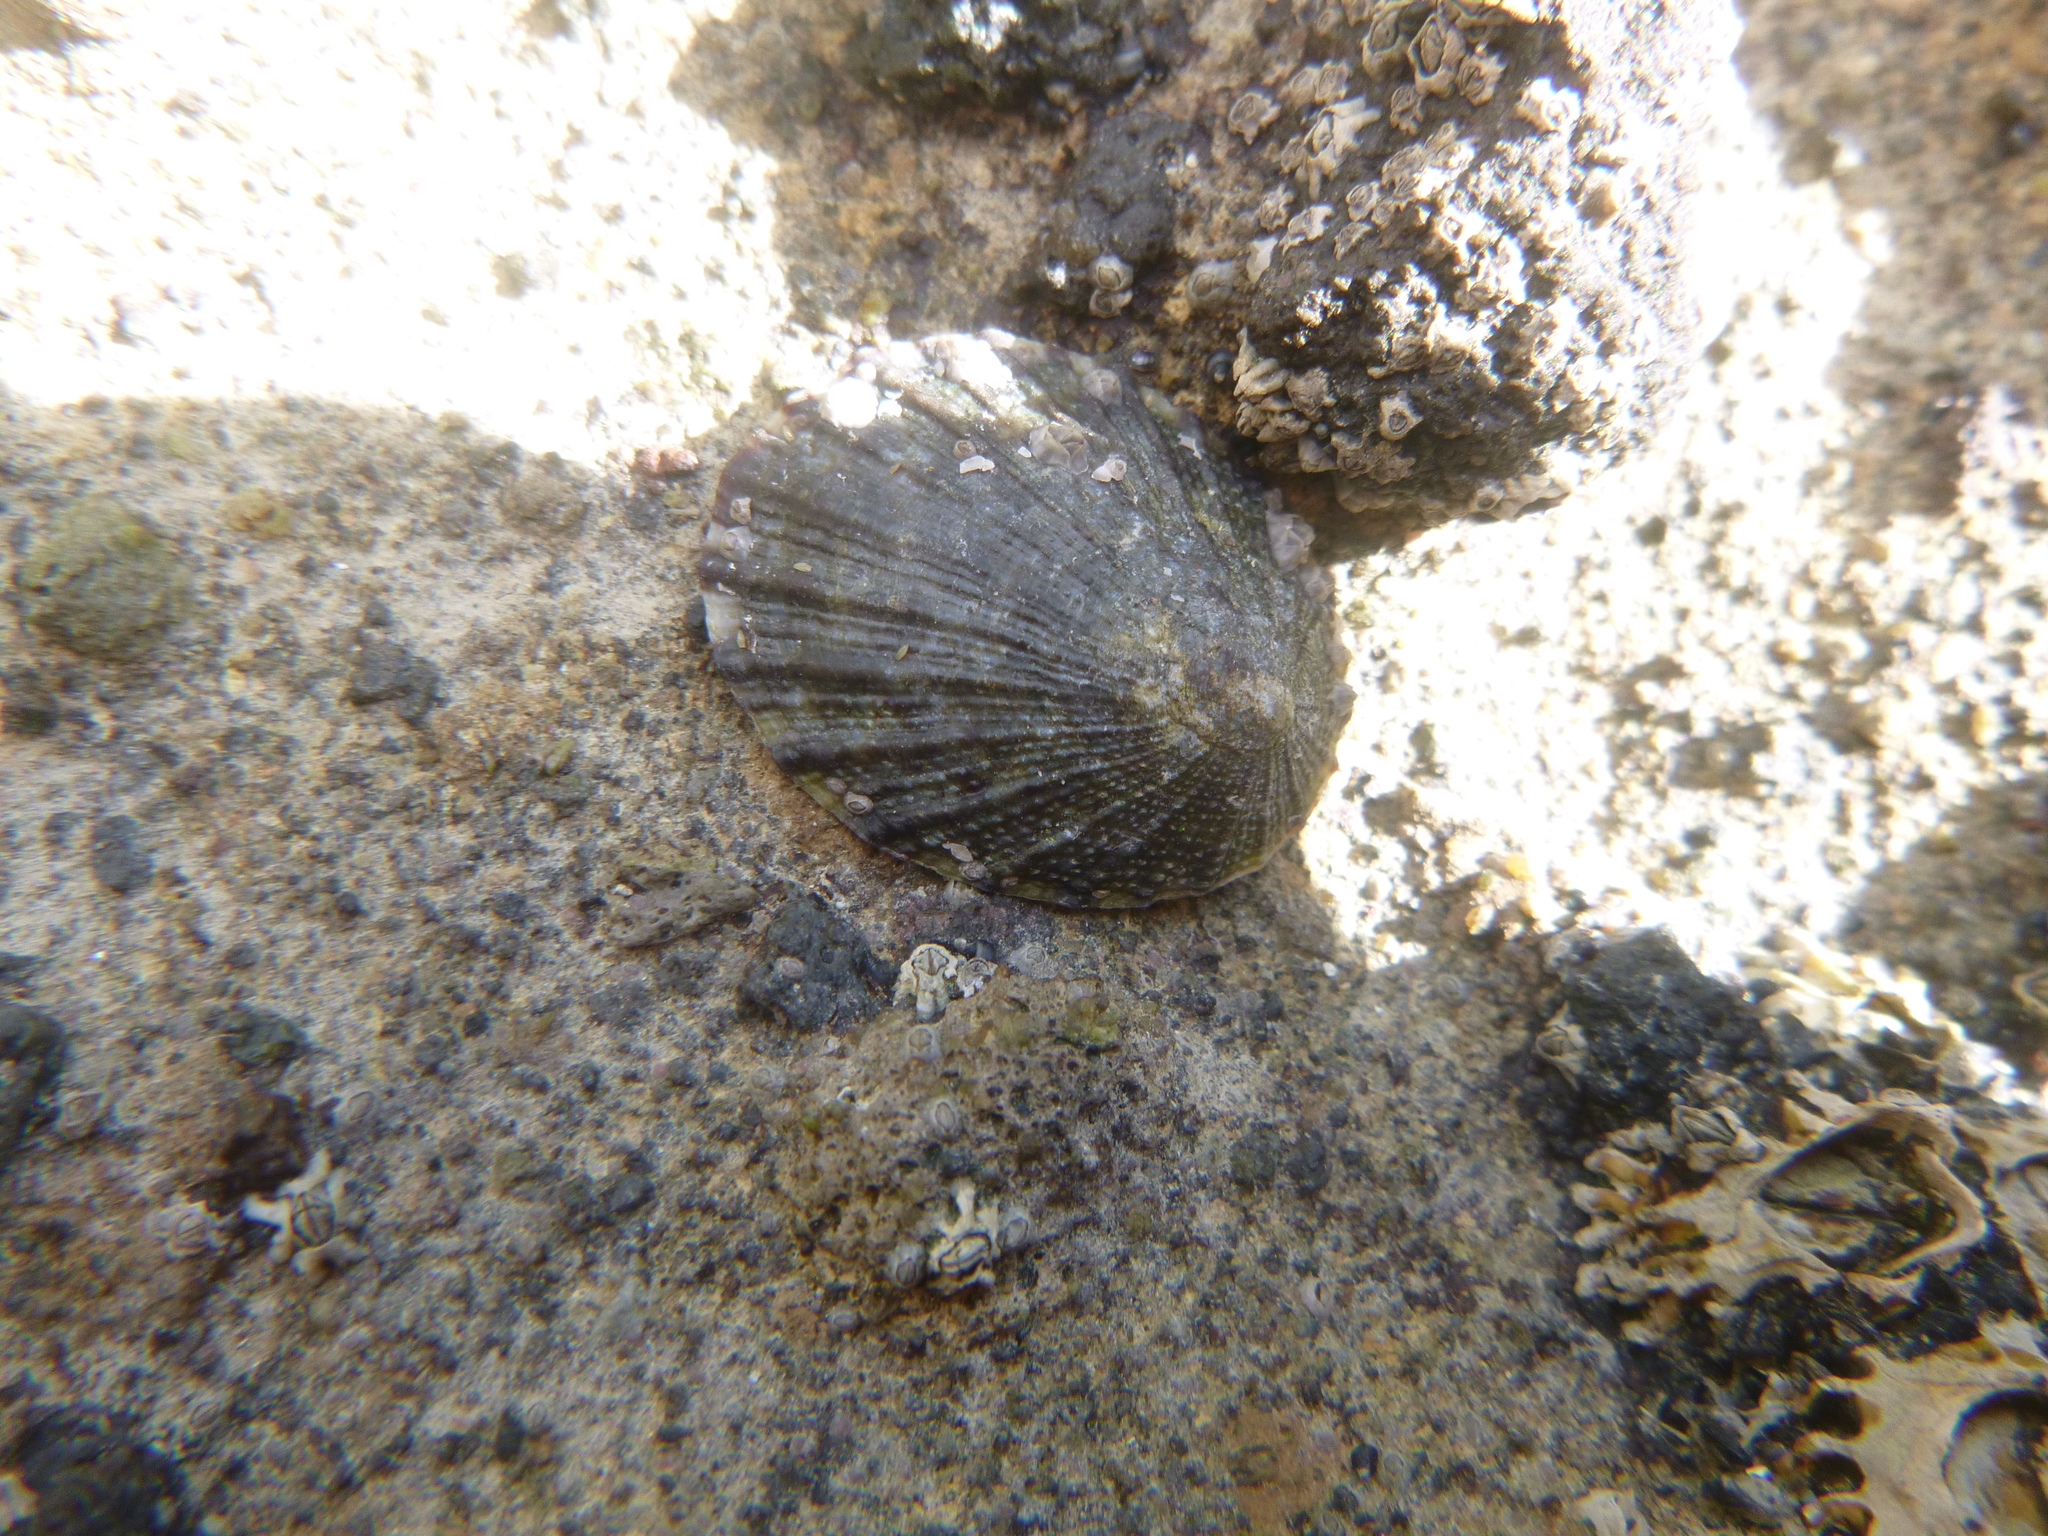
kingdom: Animalia
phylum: Mollusca
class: Gastropoda
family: Nacellidae
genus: Cellana
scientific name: Cellana radians
